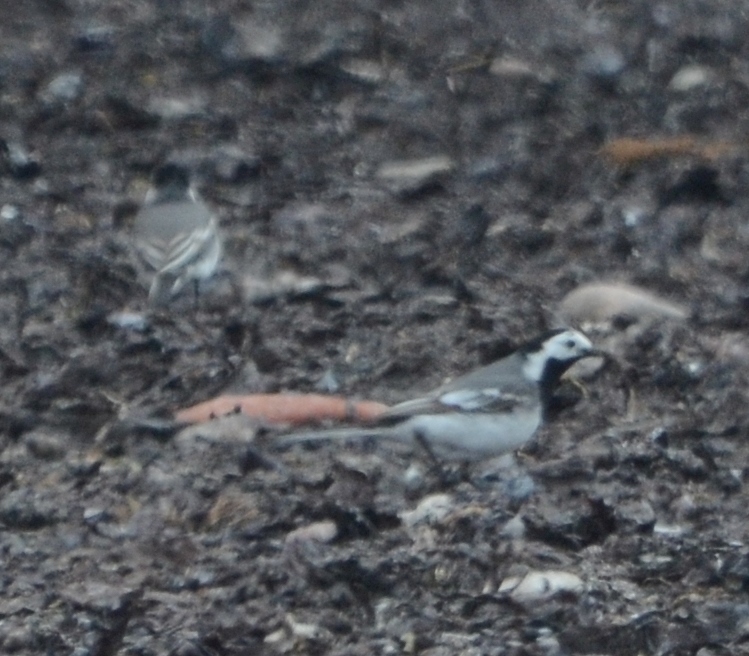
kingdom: Animalia
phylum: Chordata
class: Aves
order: Passeriformes
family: Motacillidae
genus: Motacilla
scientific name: Motacilla alba
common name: White wagtail
